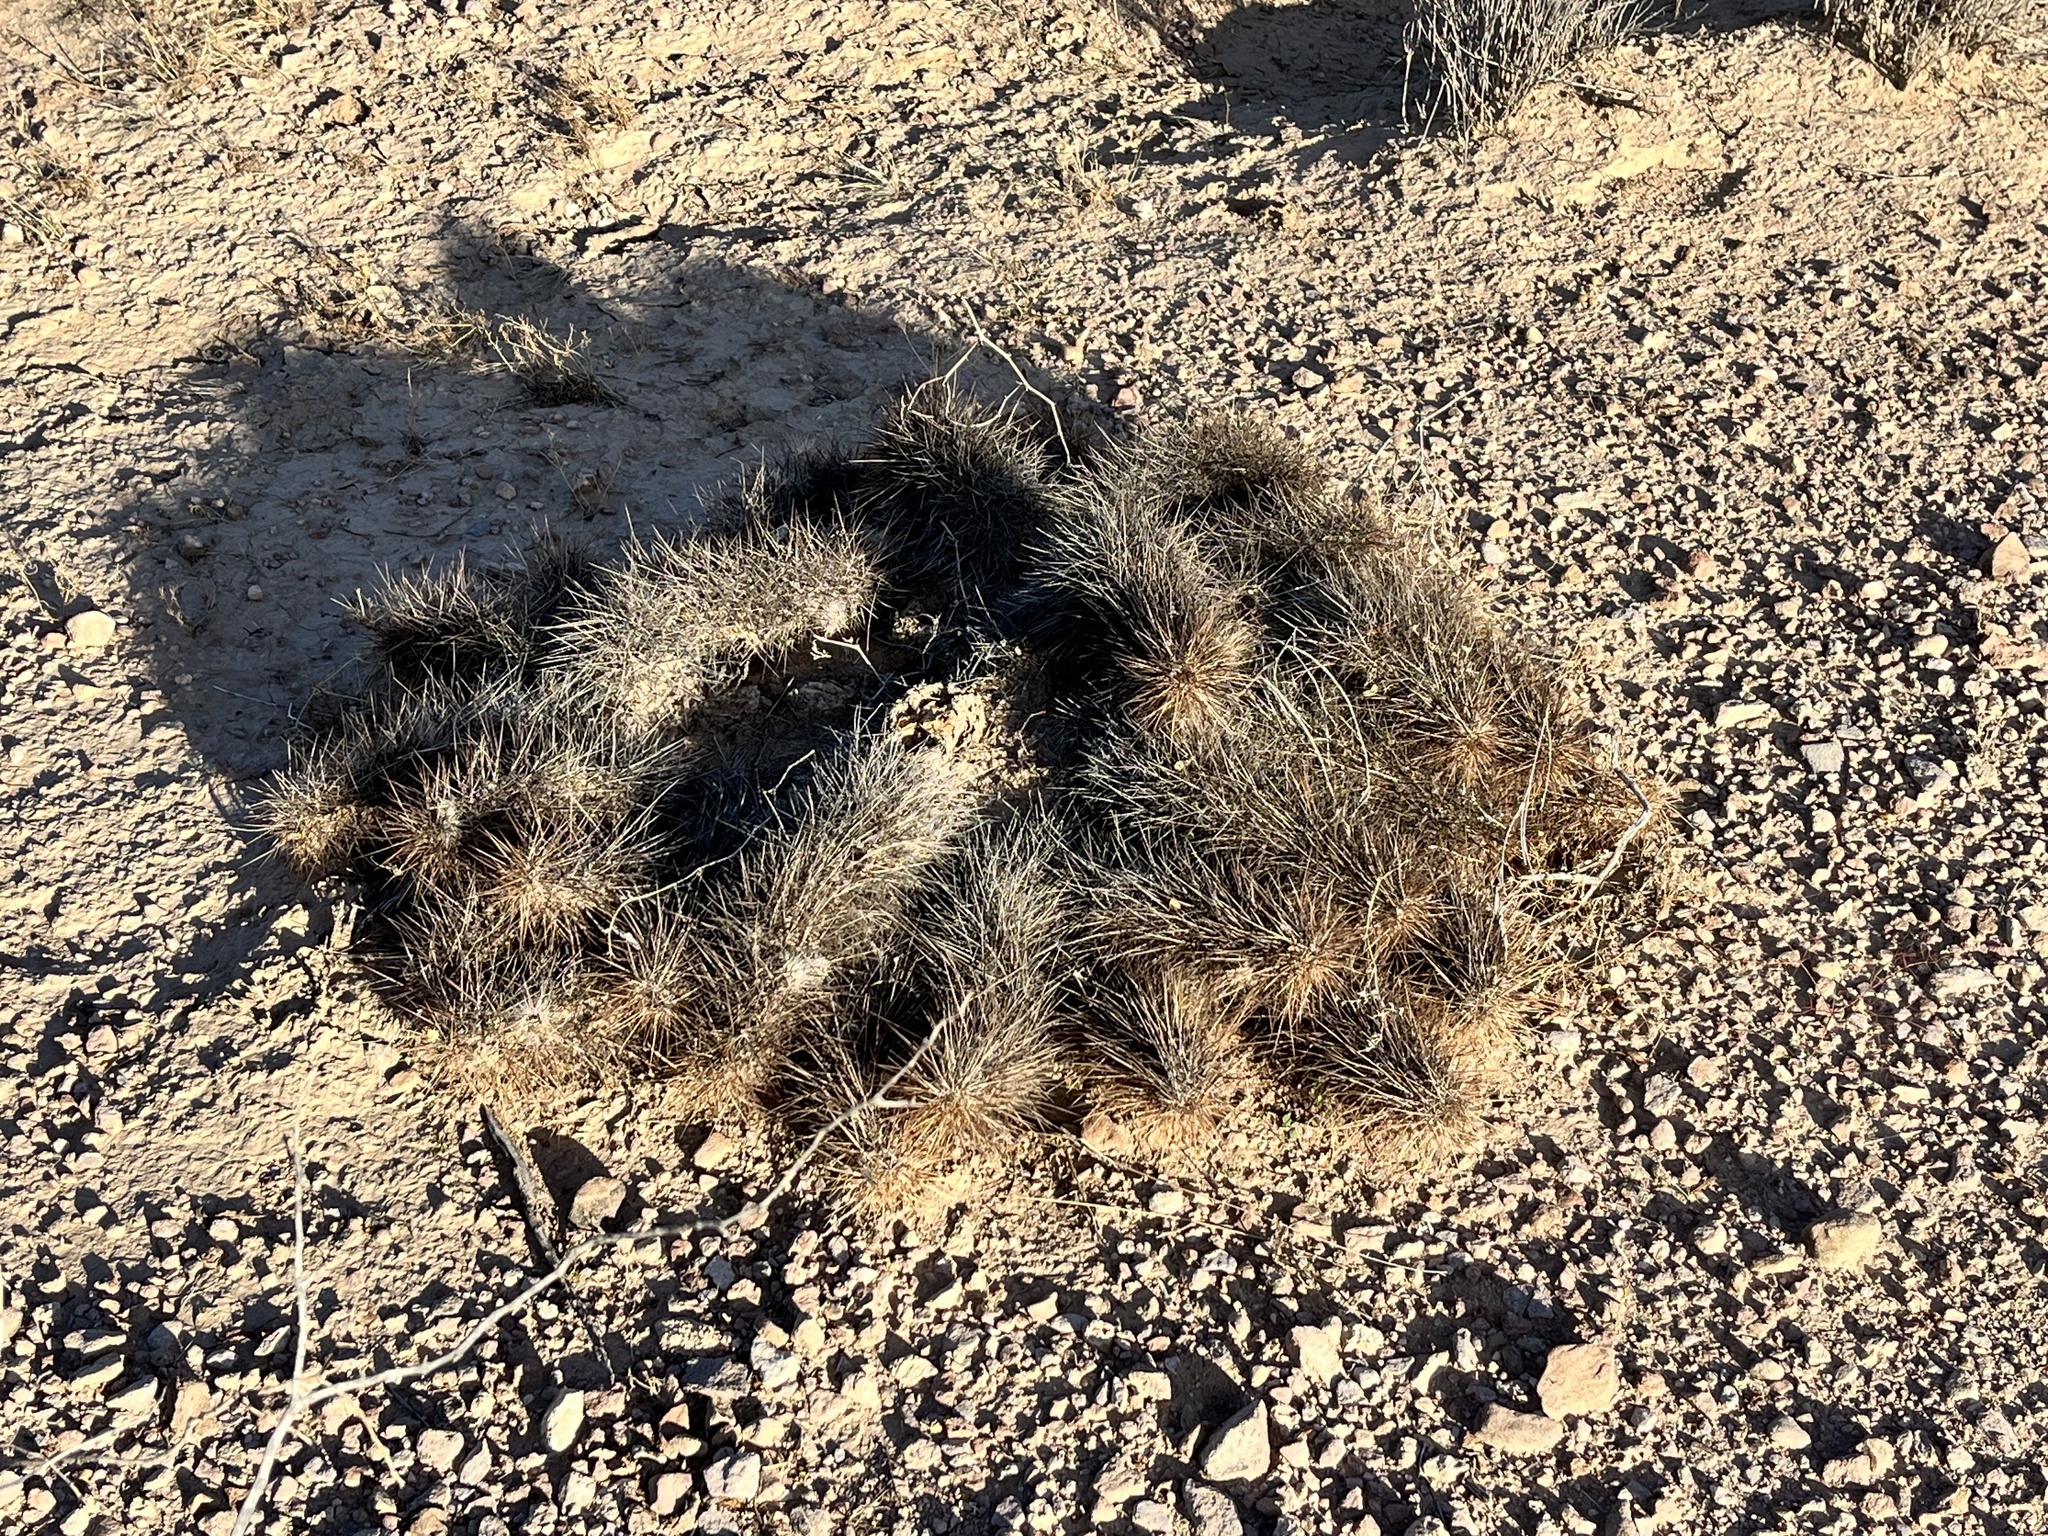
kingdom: Plantae
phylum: Tracheophyta
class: Magnoliopsida
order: Caryophyllales
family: Cactaceae
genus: Echinocereus
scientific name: Echinocereus engelmannii
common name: Engelmann's hedgehog cactus
